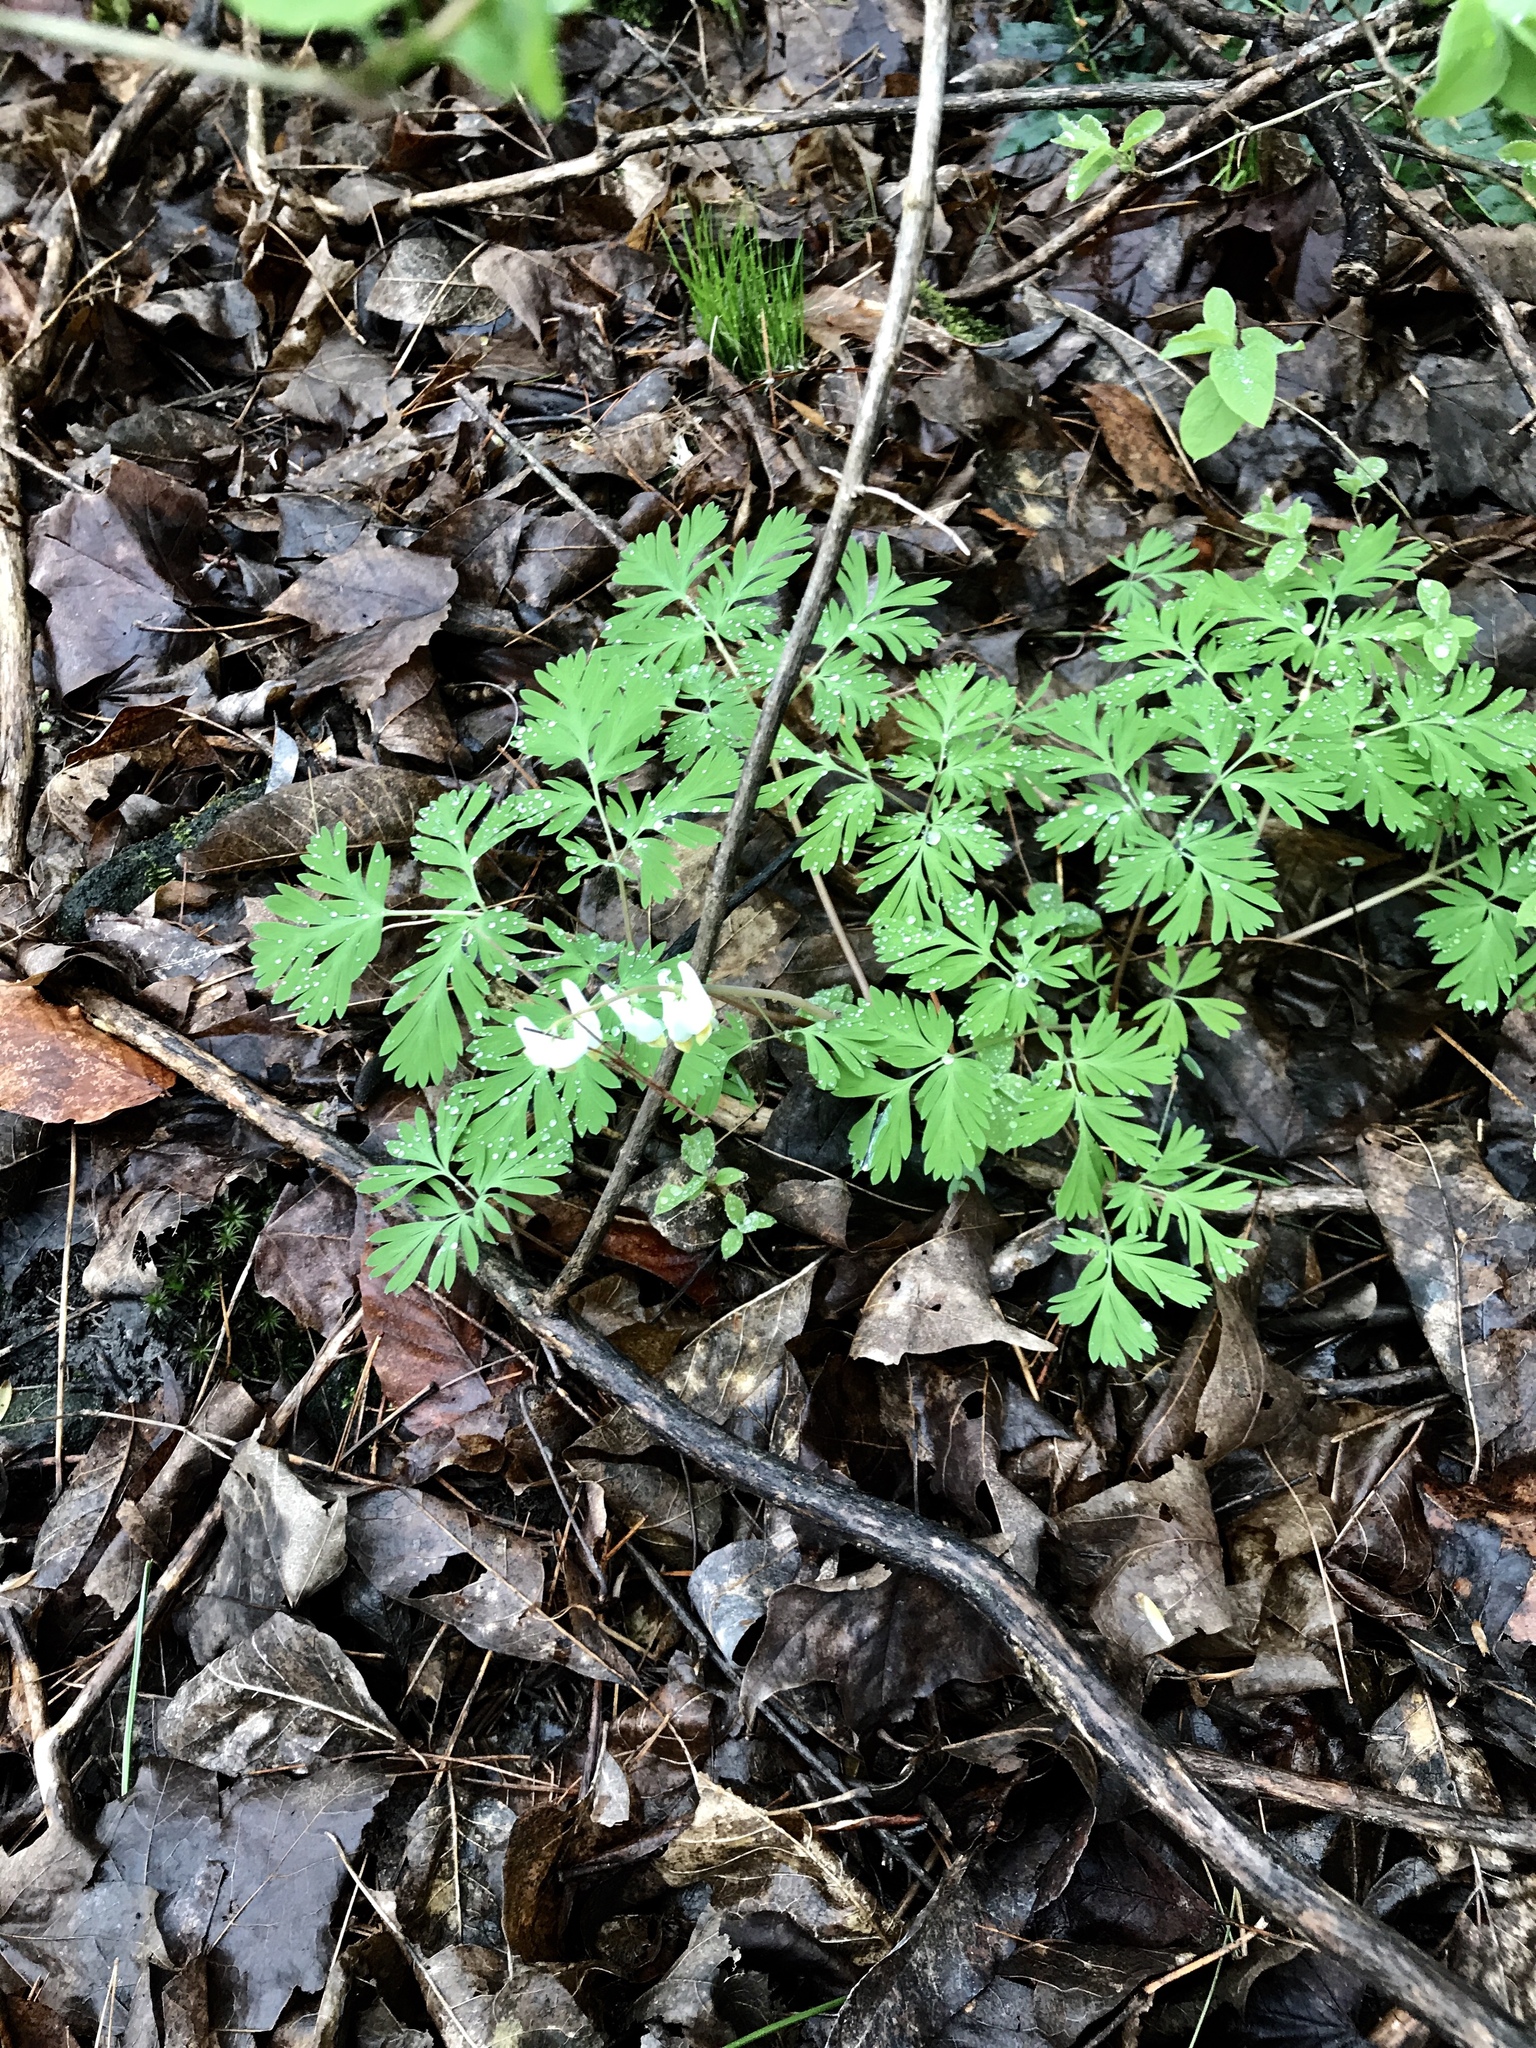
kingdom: Plantae
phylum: Tracheophyta
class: Magnoliopsida
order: Ranunculales
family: Papaveraceae
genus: Dicentra
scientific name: Dicentra cucullaria
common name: Dutchman's breeches
